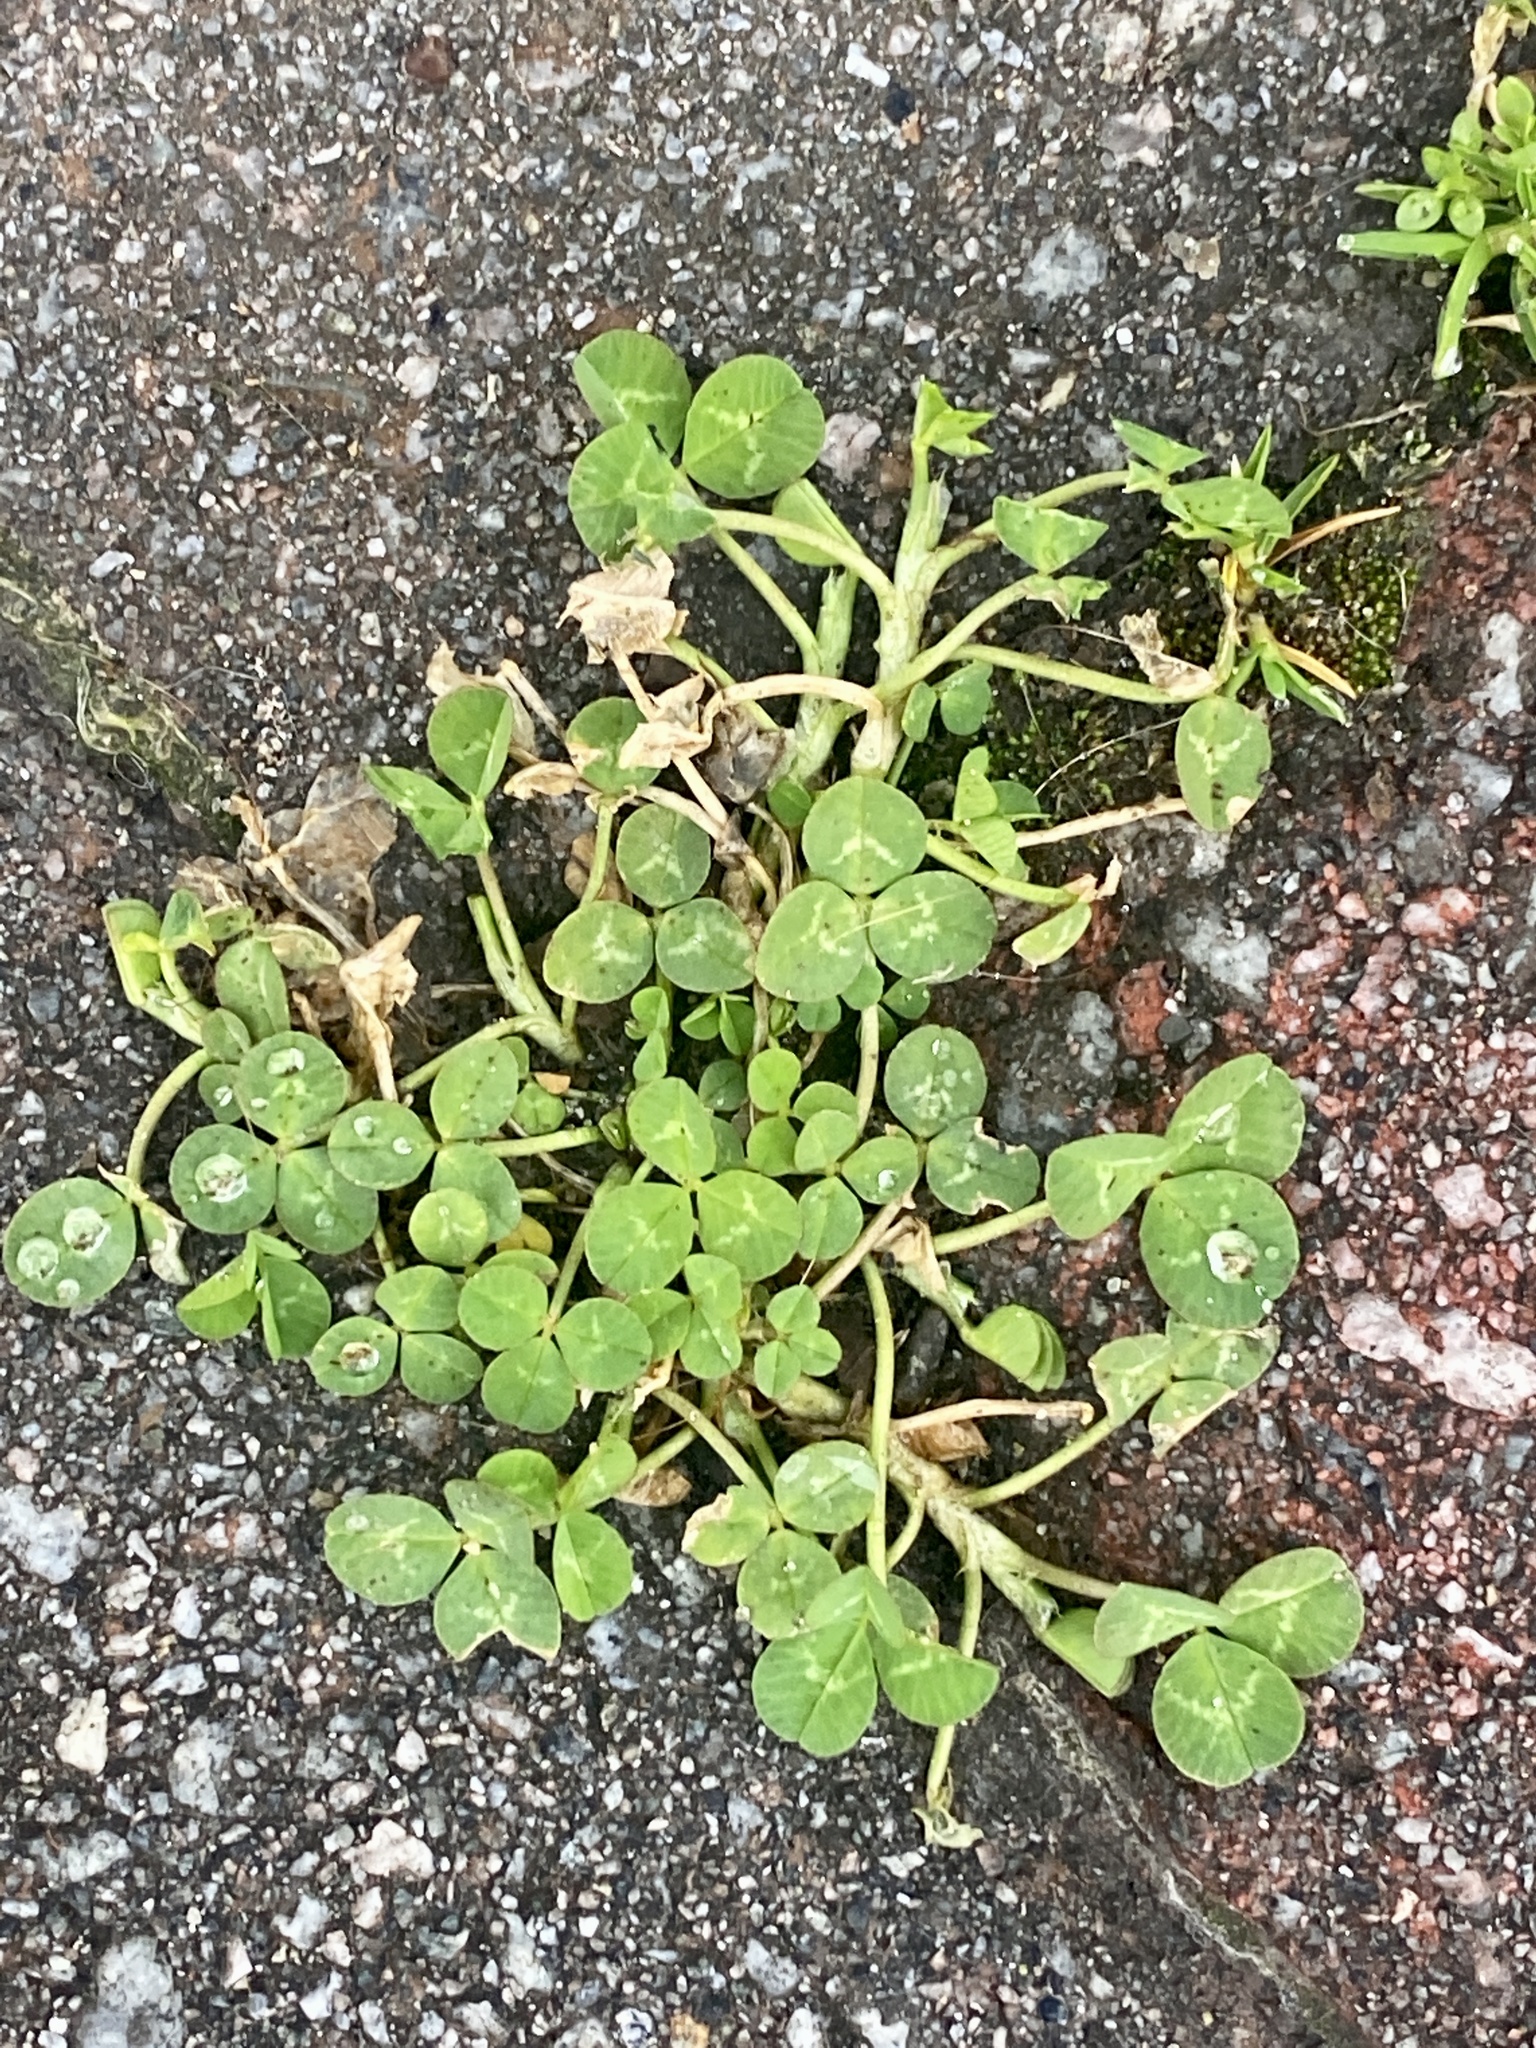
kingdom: Plantae
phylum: Tracheophyta
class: Magnoliopsida
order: Fabales
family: Fabaceae
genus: Trifolium
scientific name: Trifolium repens
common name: White clover
